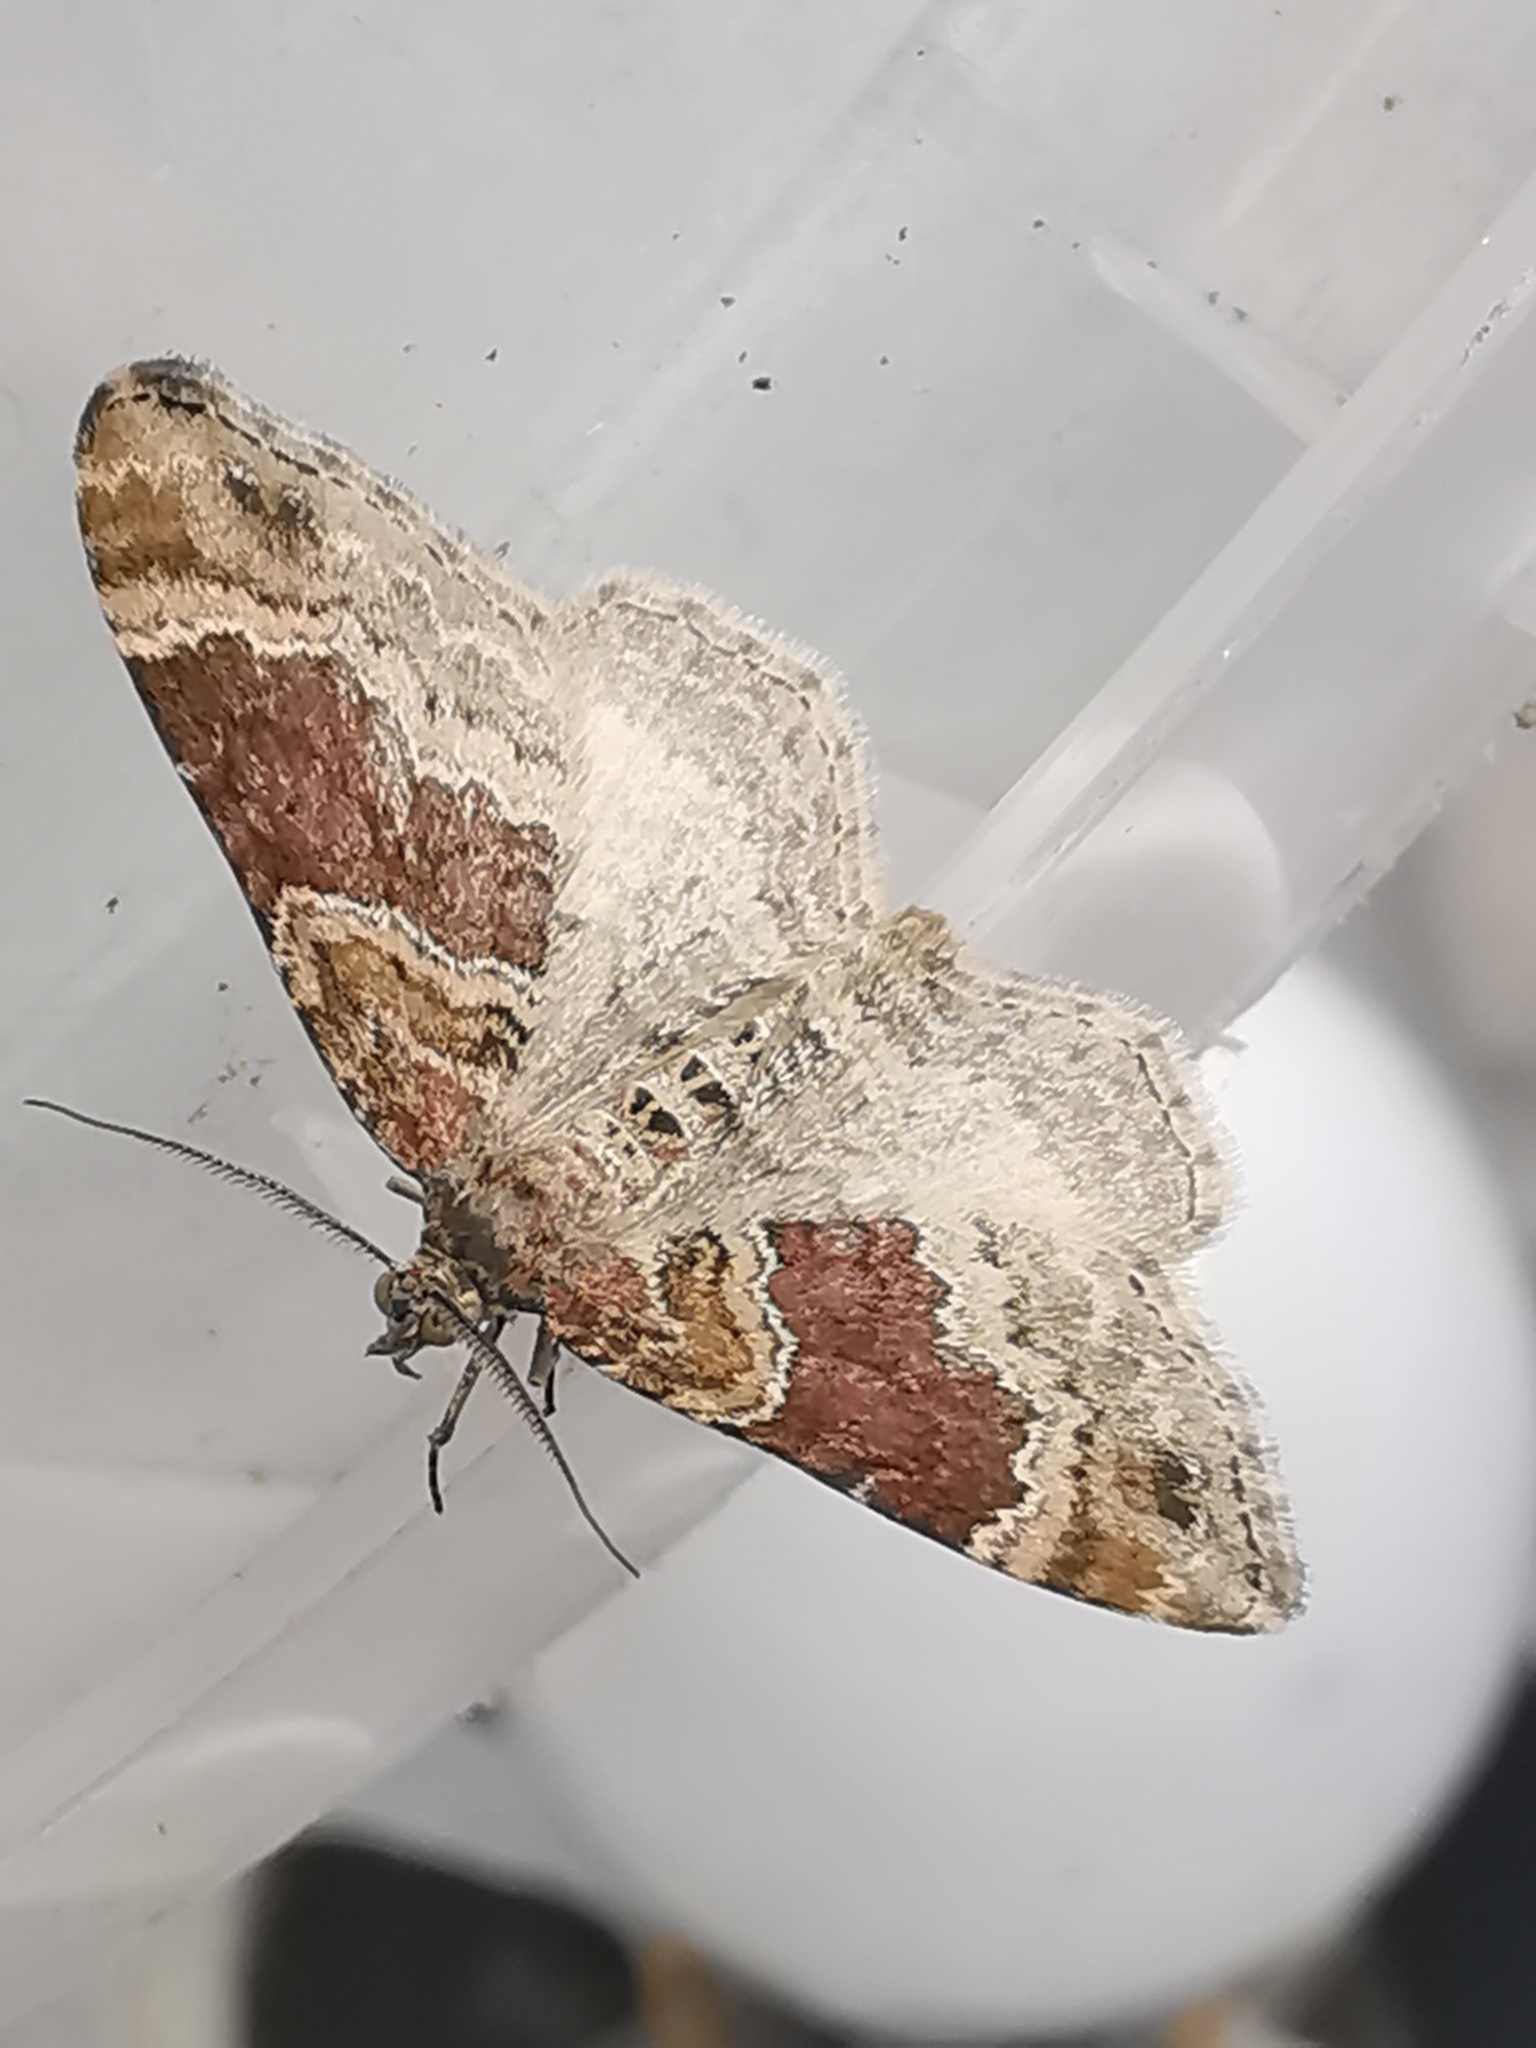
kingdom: Animalia
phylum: Arthropoda
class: Insecta
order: Lepidoptera
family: Geometridae
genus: Xanthorhoe
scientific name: Xanthorhoe spadicearia
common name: Red twin-spot carpet
